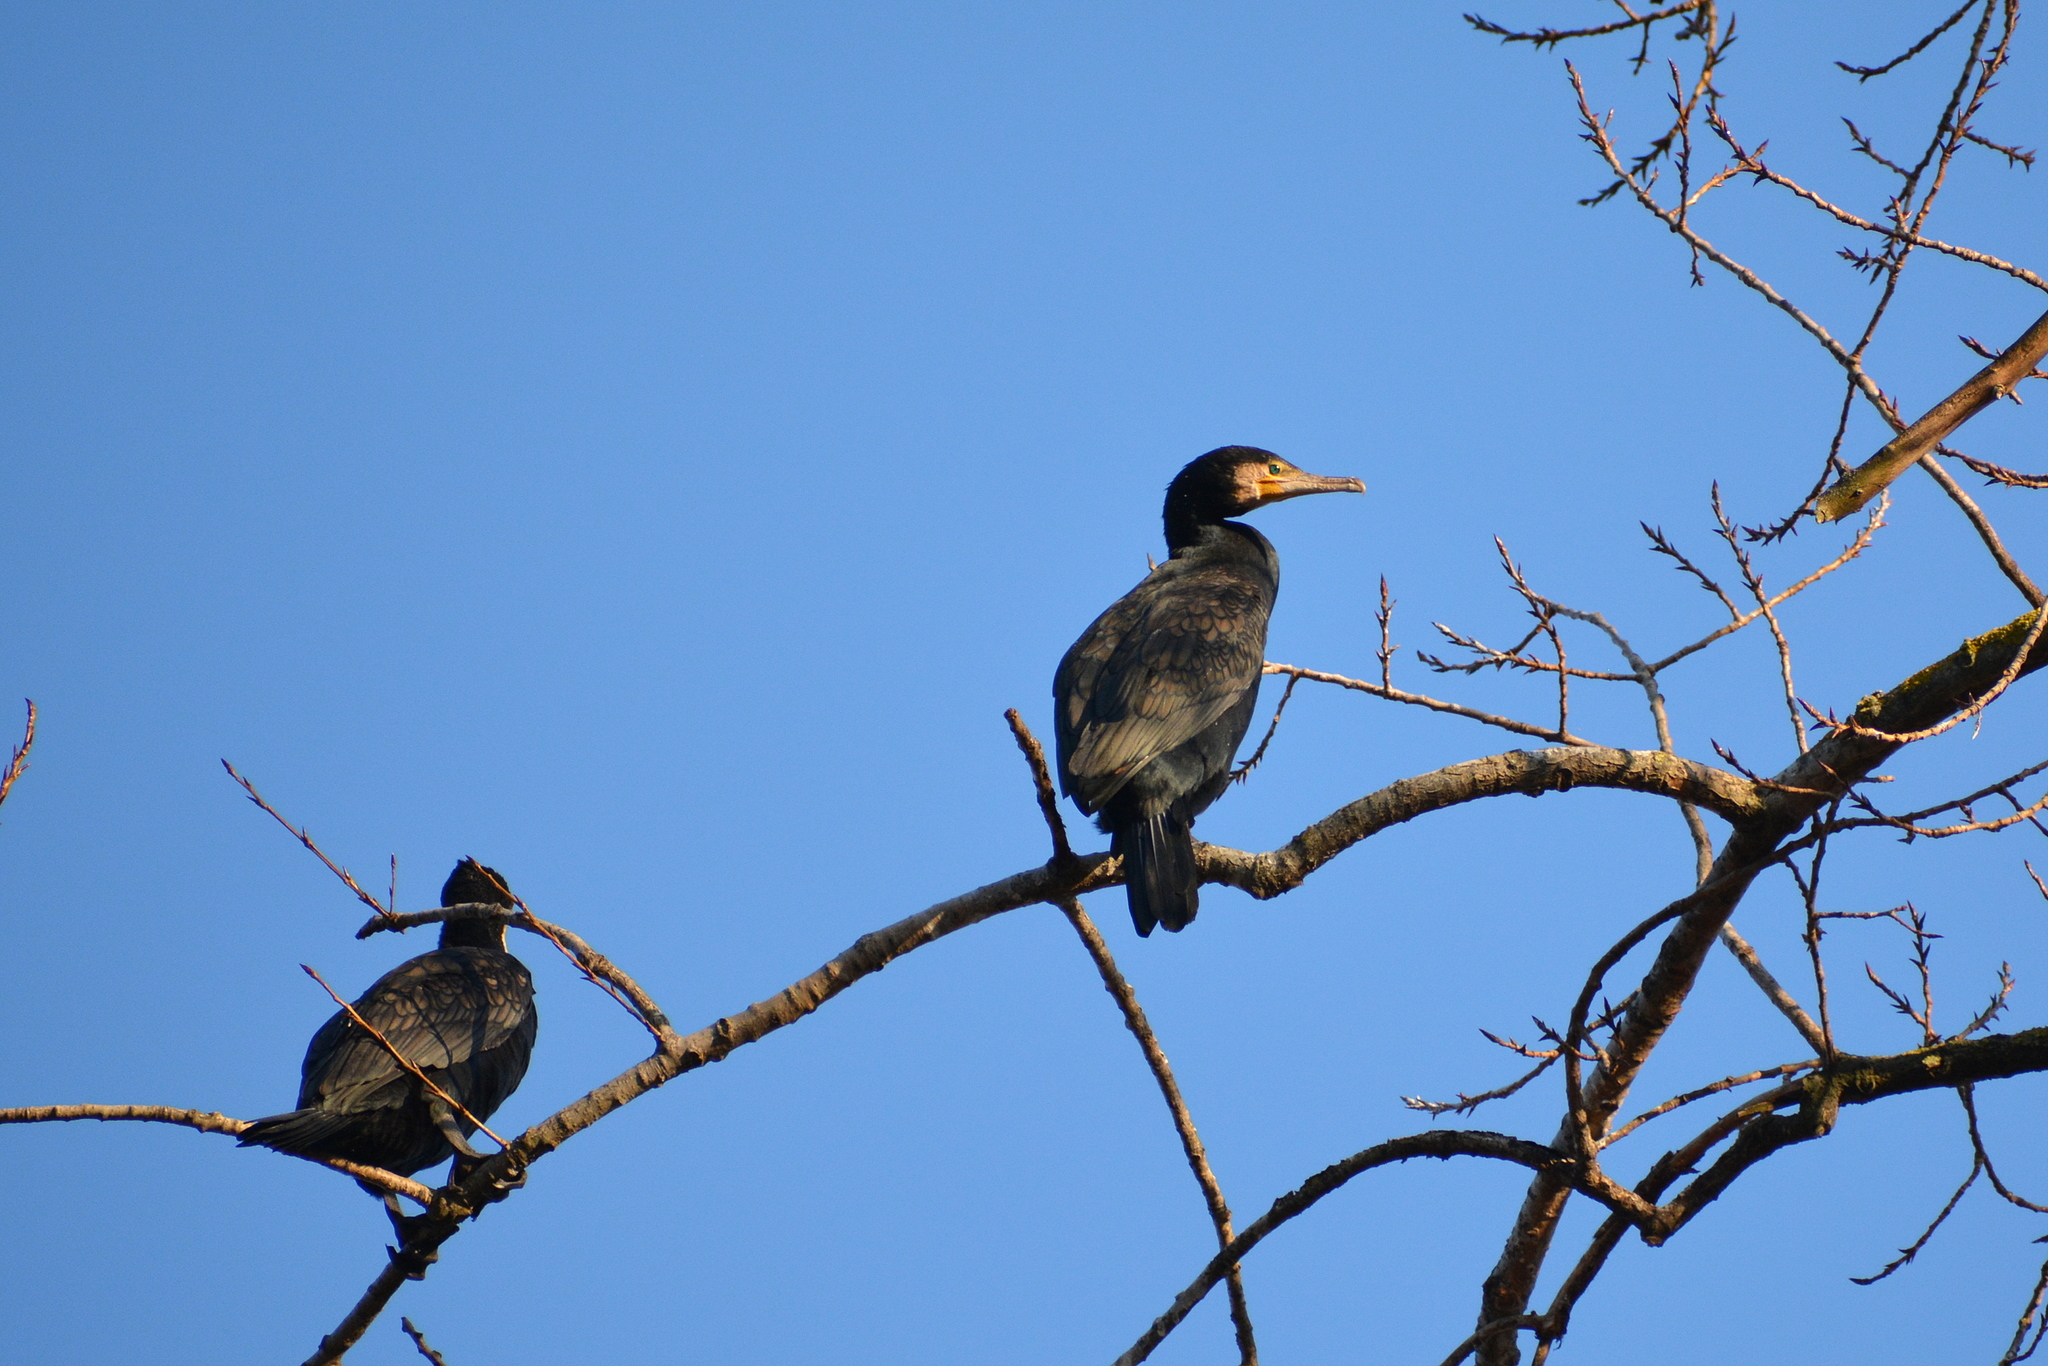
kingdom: Animalia
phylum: Chordata
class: Aves
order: Suliformes
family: Phalacrocoracidae
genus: Phalacrocorax
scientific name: Phalacrocorax carbo
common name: Great cormorant
